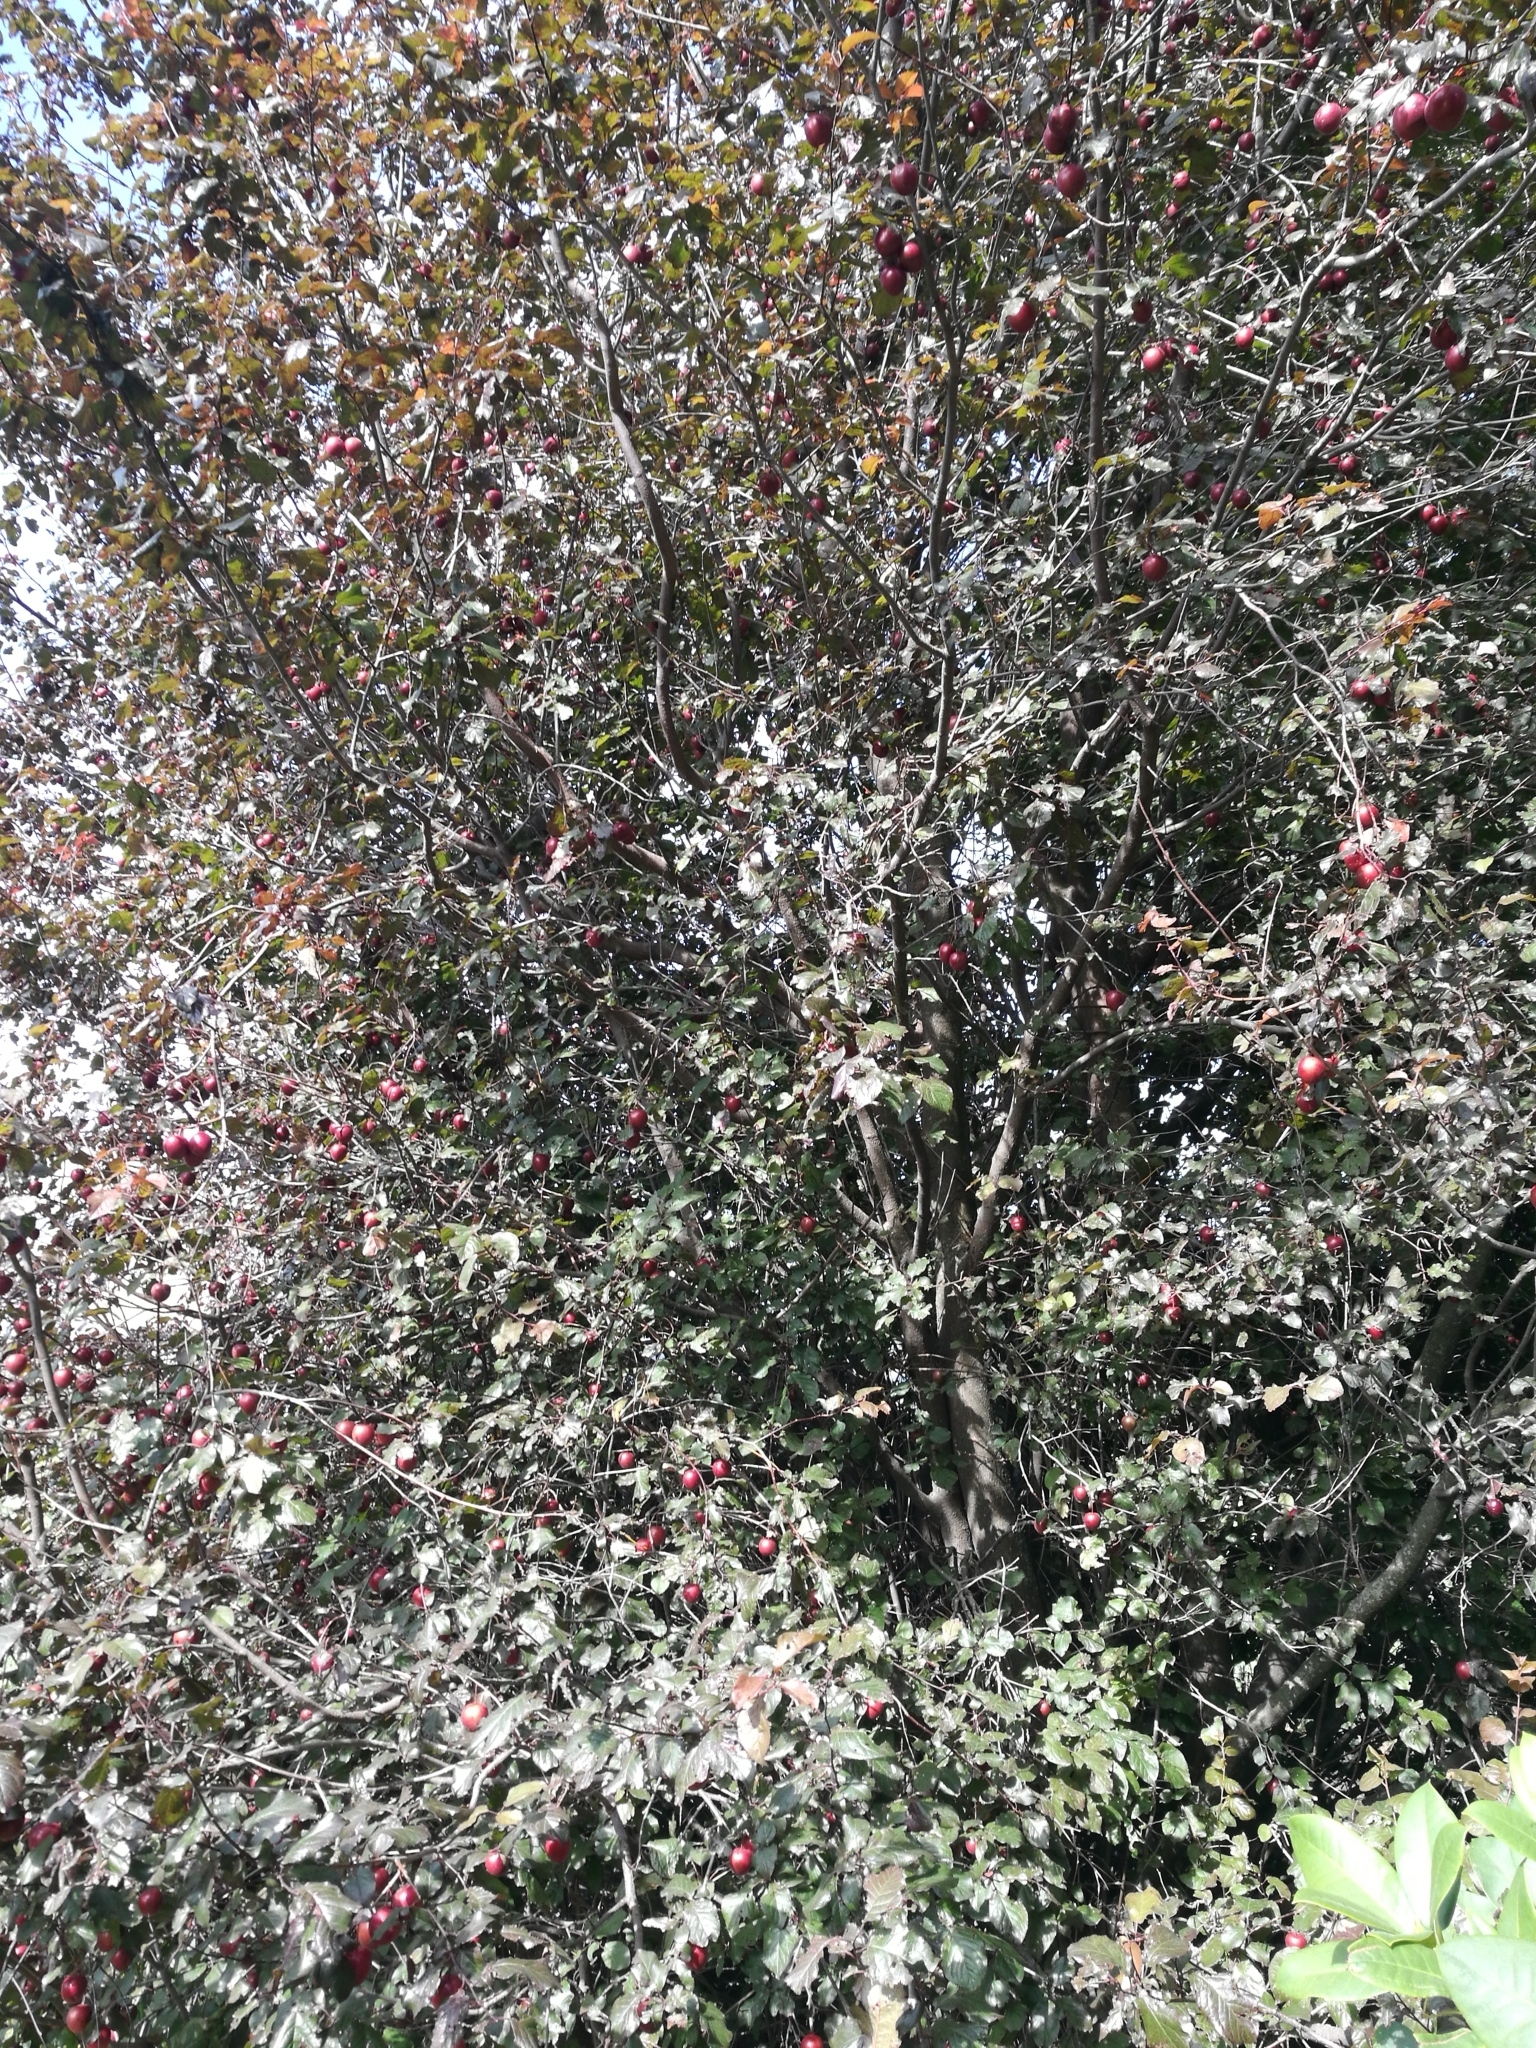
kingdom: Plantae
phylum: Tracheophyta
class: Magnoliopsida
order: Rosales
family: Rosaceae
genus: Prunus
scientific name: Prunus domestica
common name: Wild plum
